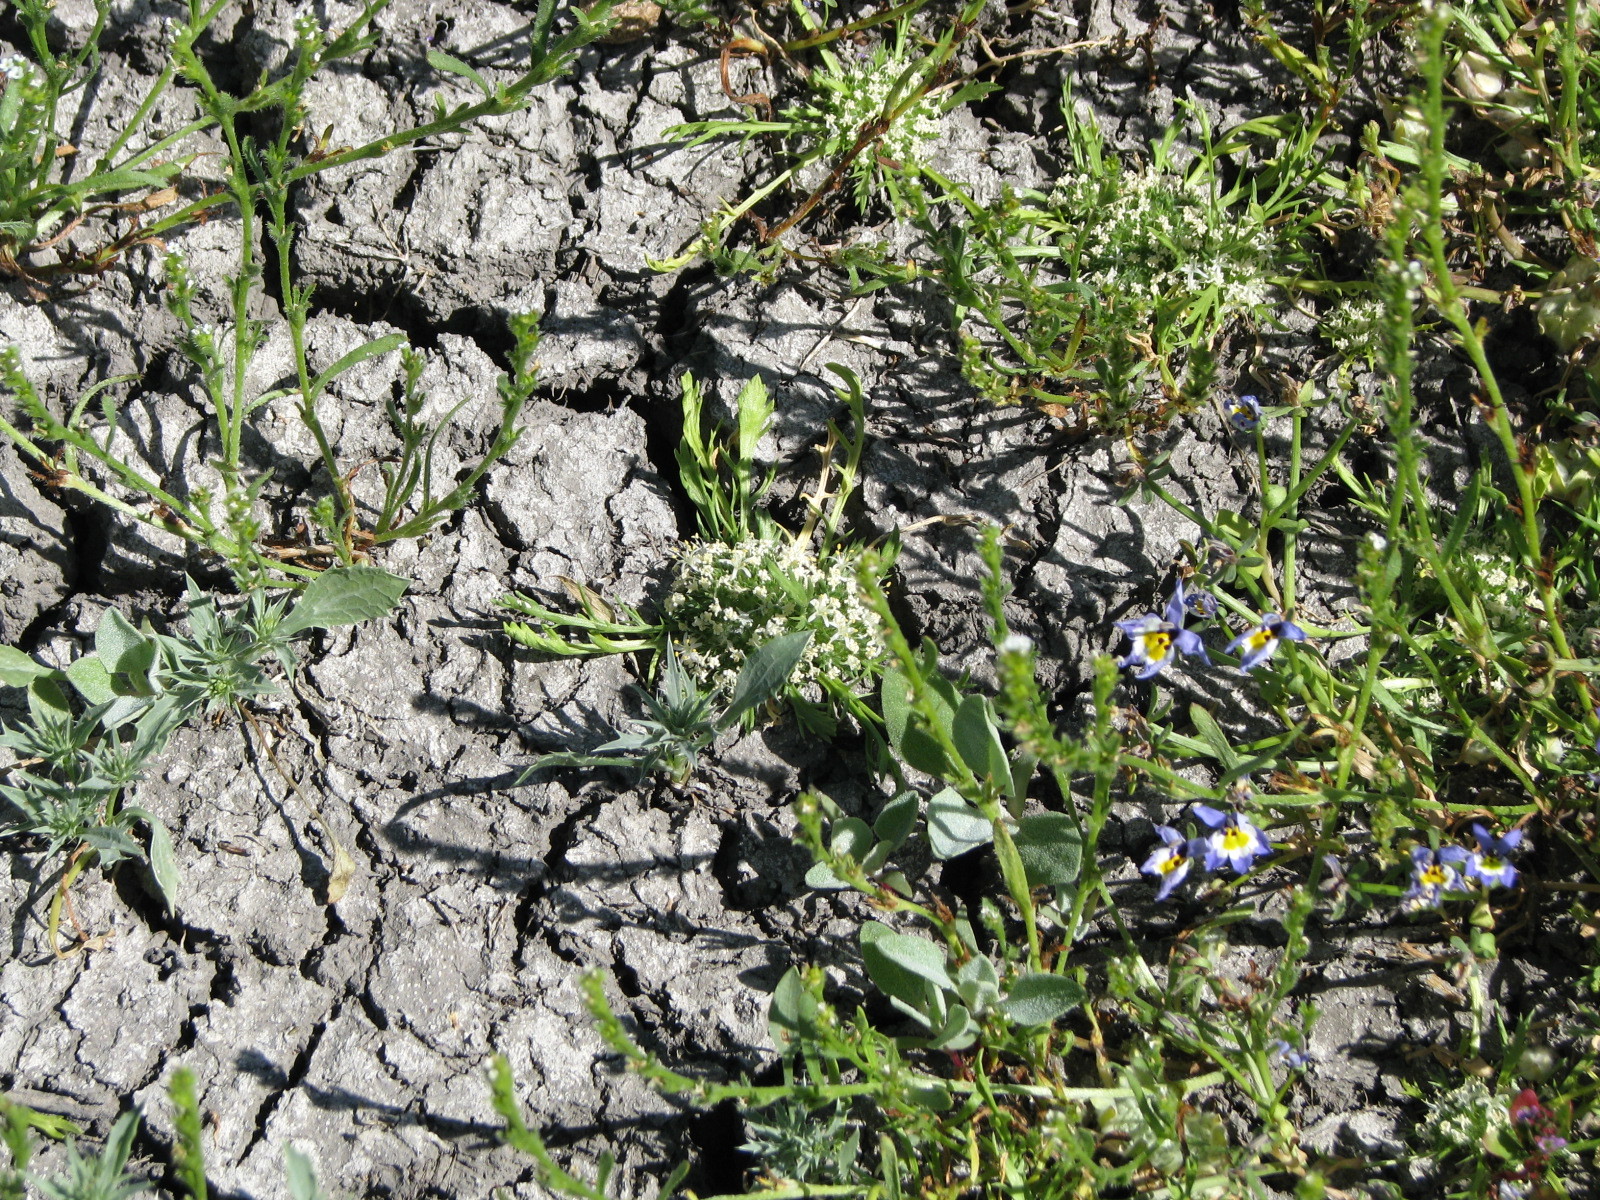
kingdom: Plantae
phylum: Tracheophyta
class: Magnoliopsida
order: Ericales
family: Polemoniaceae
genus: Navarretia
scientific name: Navarretia prostrata
